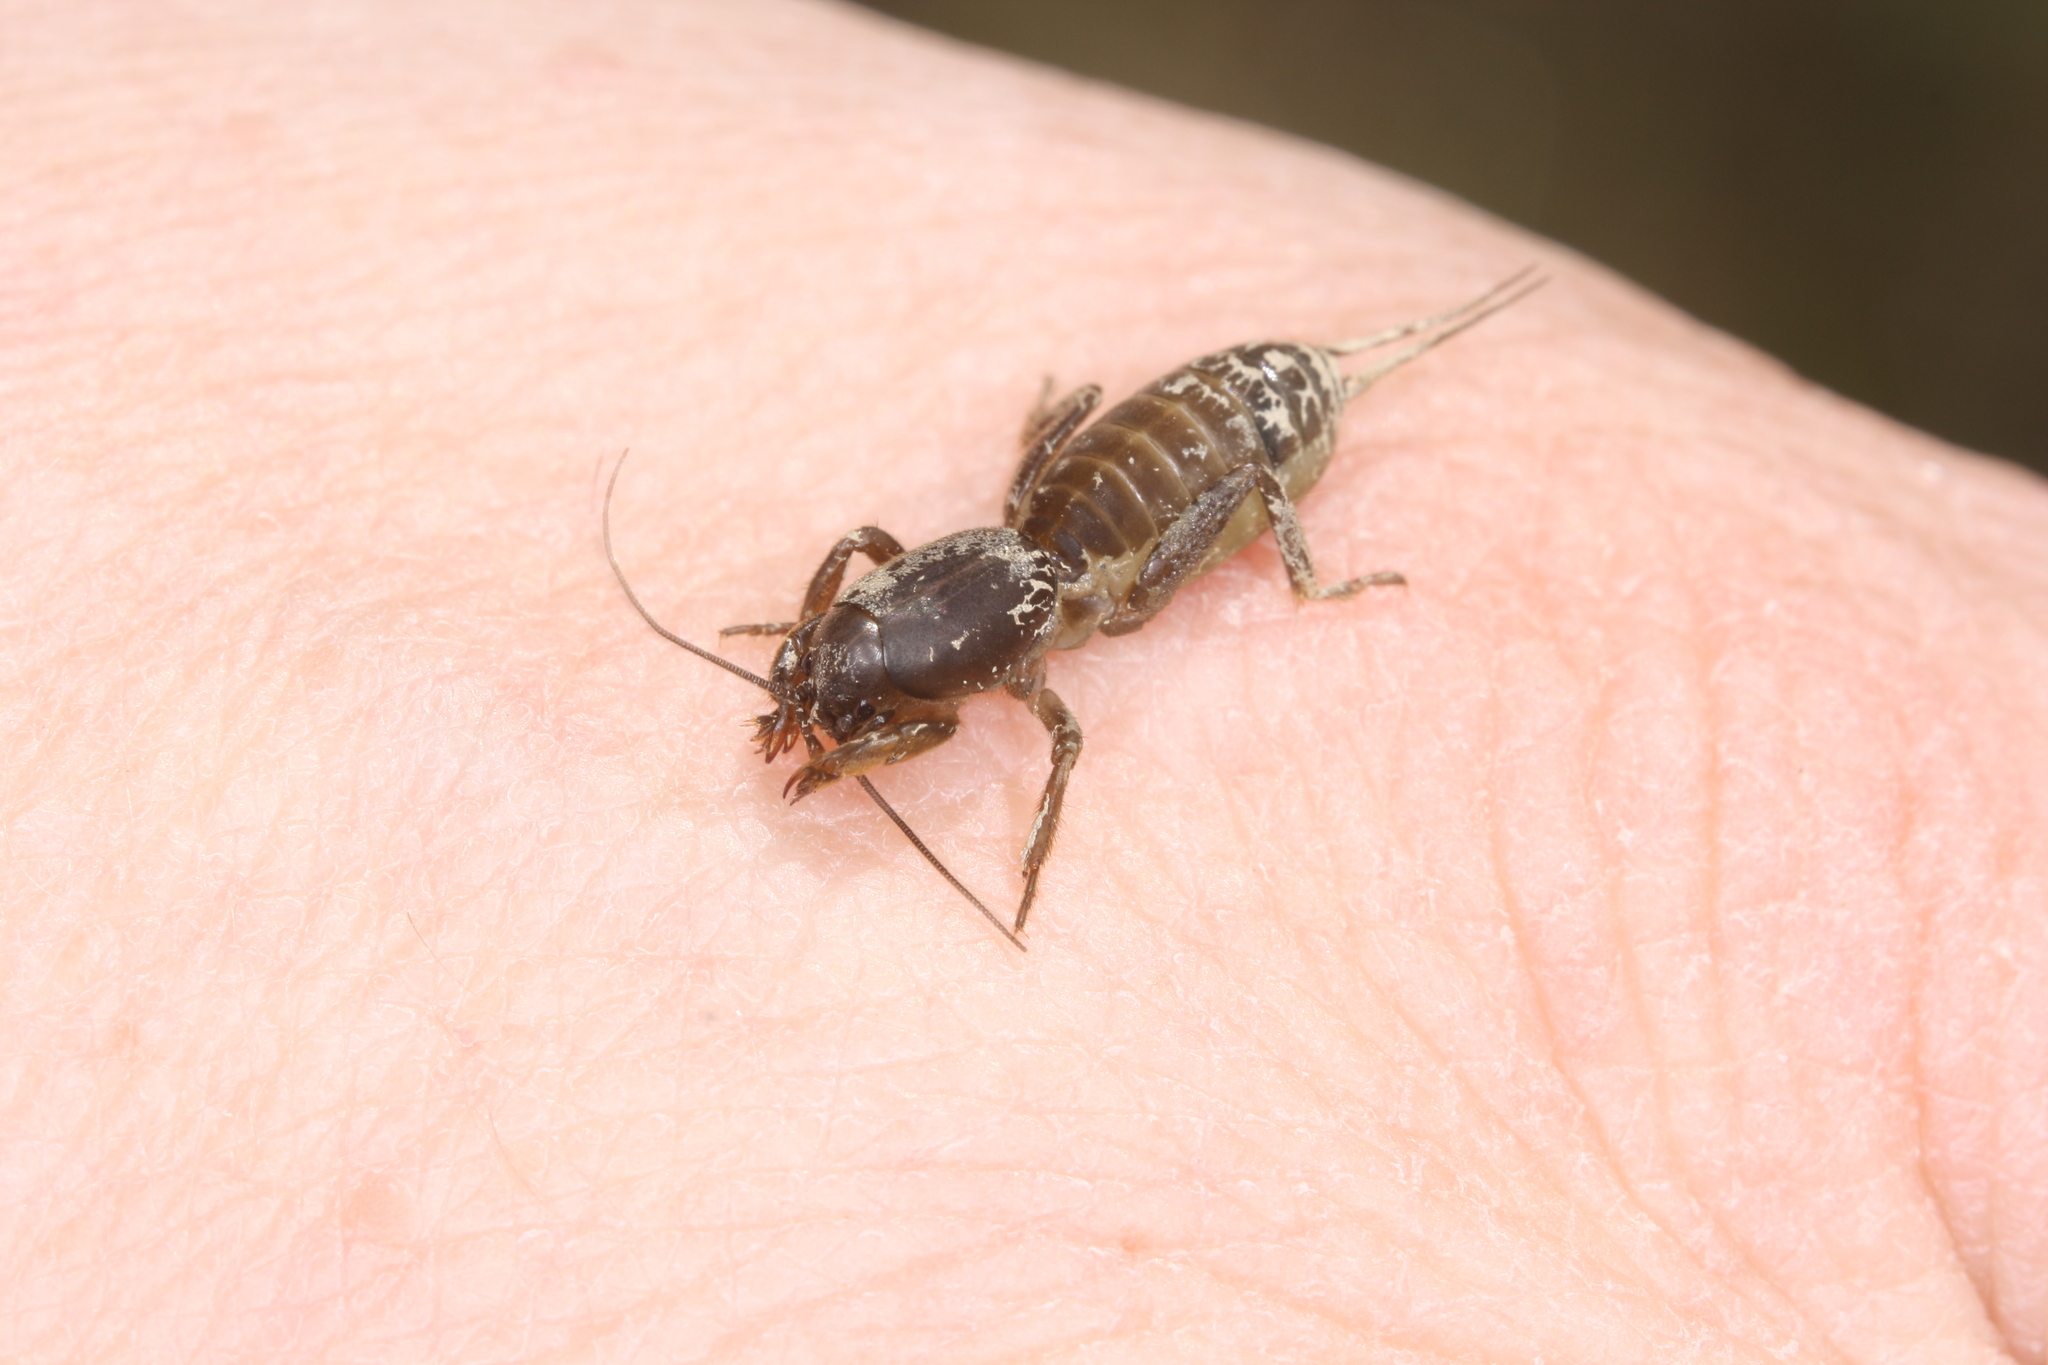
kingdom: Animalia
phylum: Arthropoda
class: Insecta
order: Orthoptera
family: Gryllotalpidae
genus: Gryllotalpa
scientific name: Gryllotalpa gryllotalpa
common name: European mole cricket
